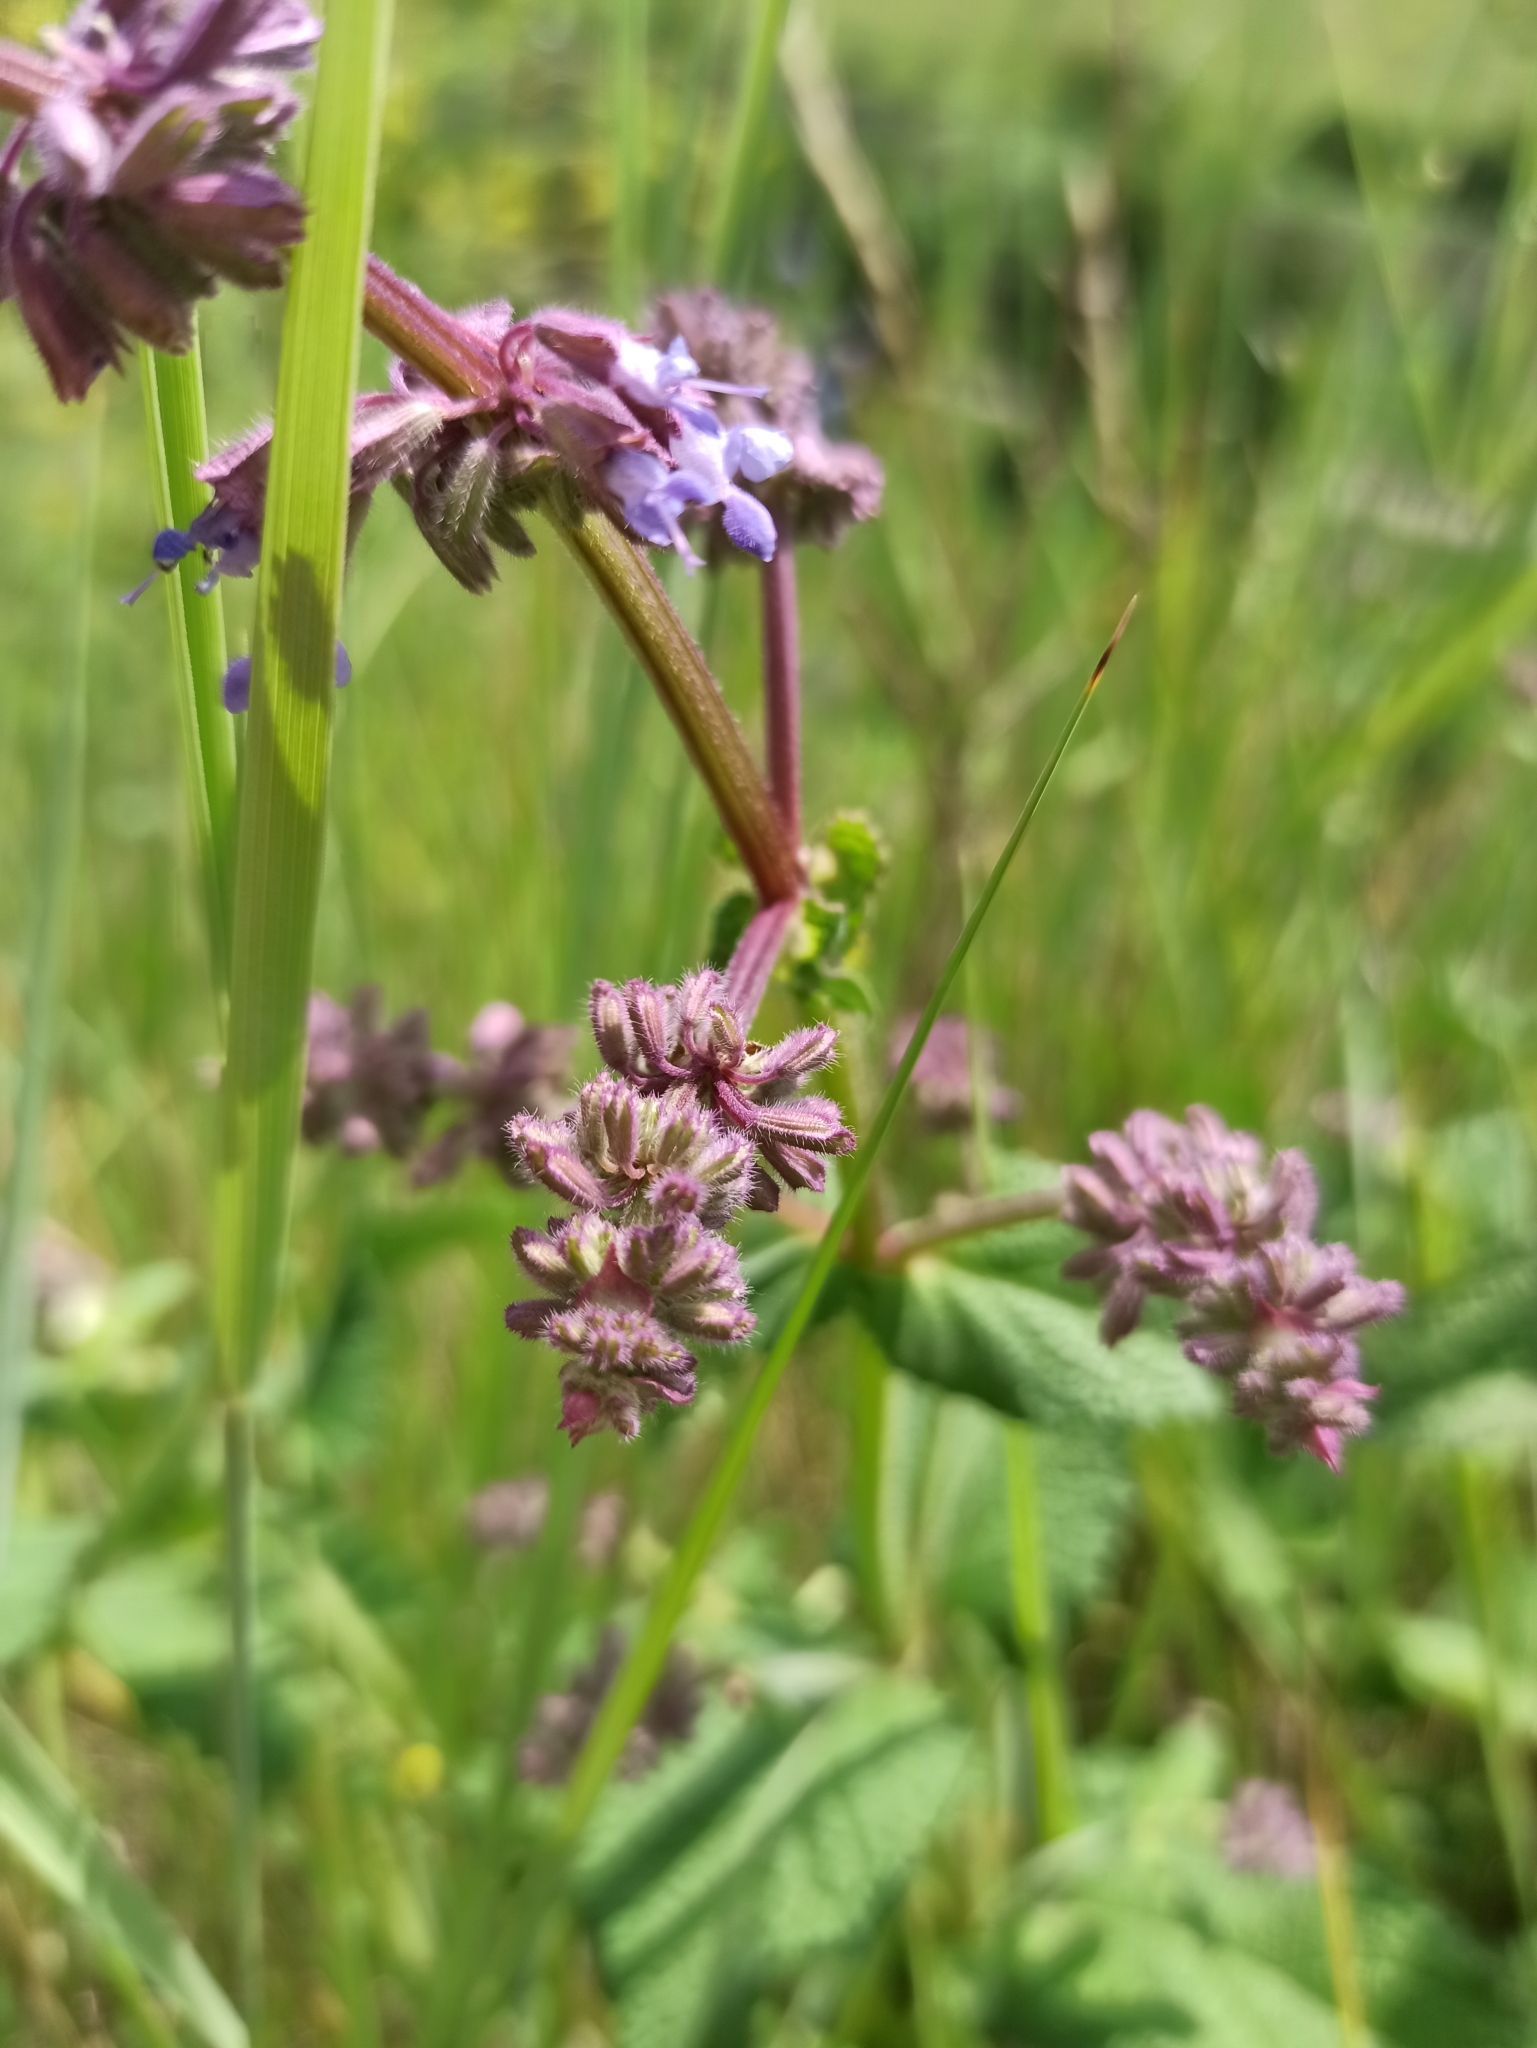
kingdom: Plantae
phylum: Tracheophyta
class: Magnoliopsida
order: Lamiales
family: Lamiaceae
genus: Salvia
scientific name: Salvia verticillata
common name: Whorled clary
